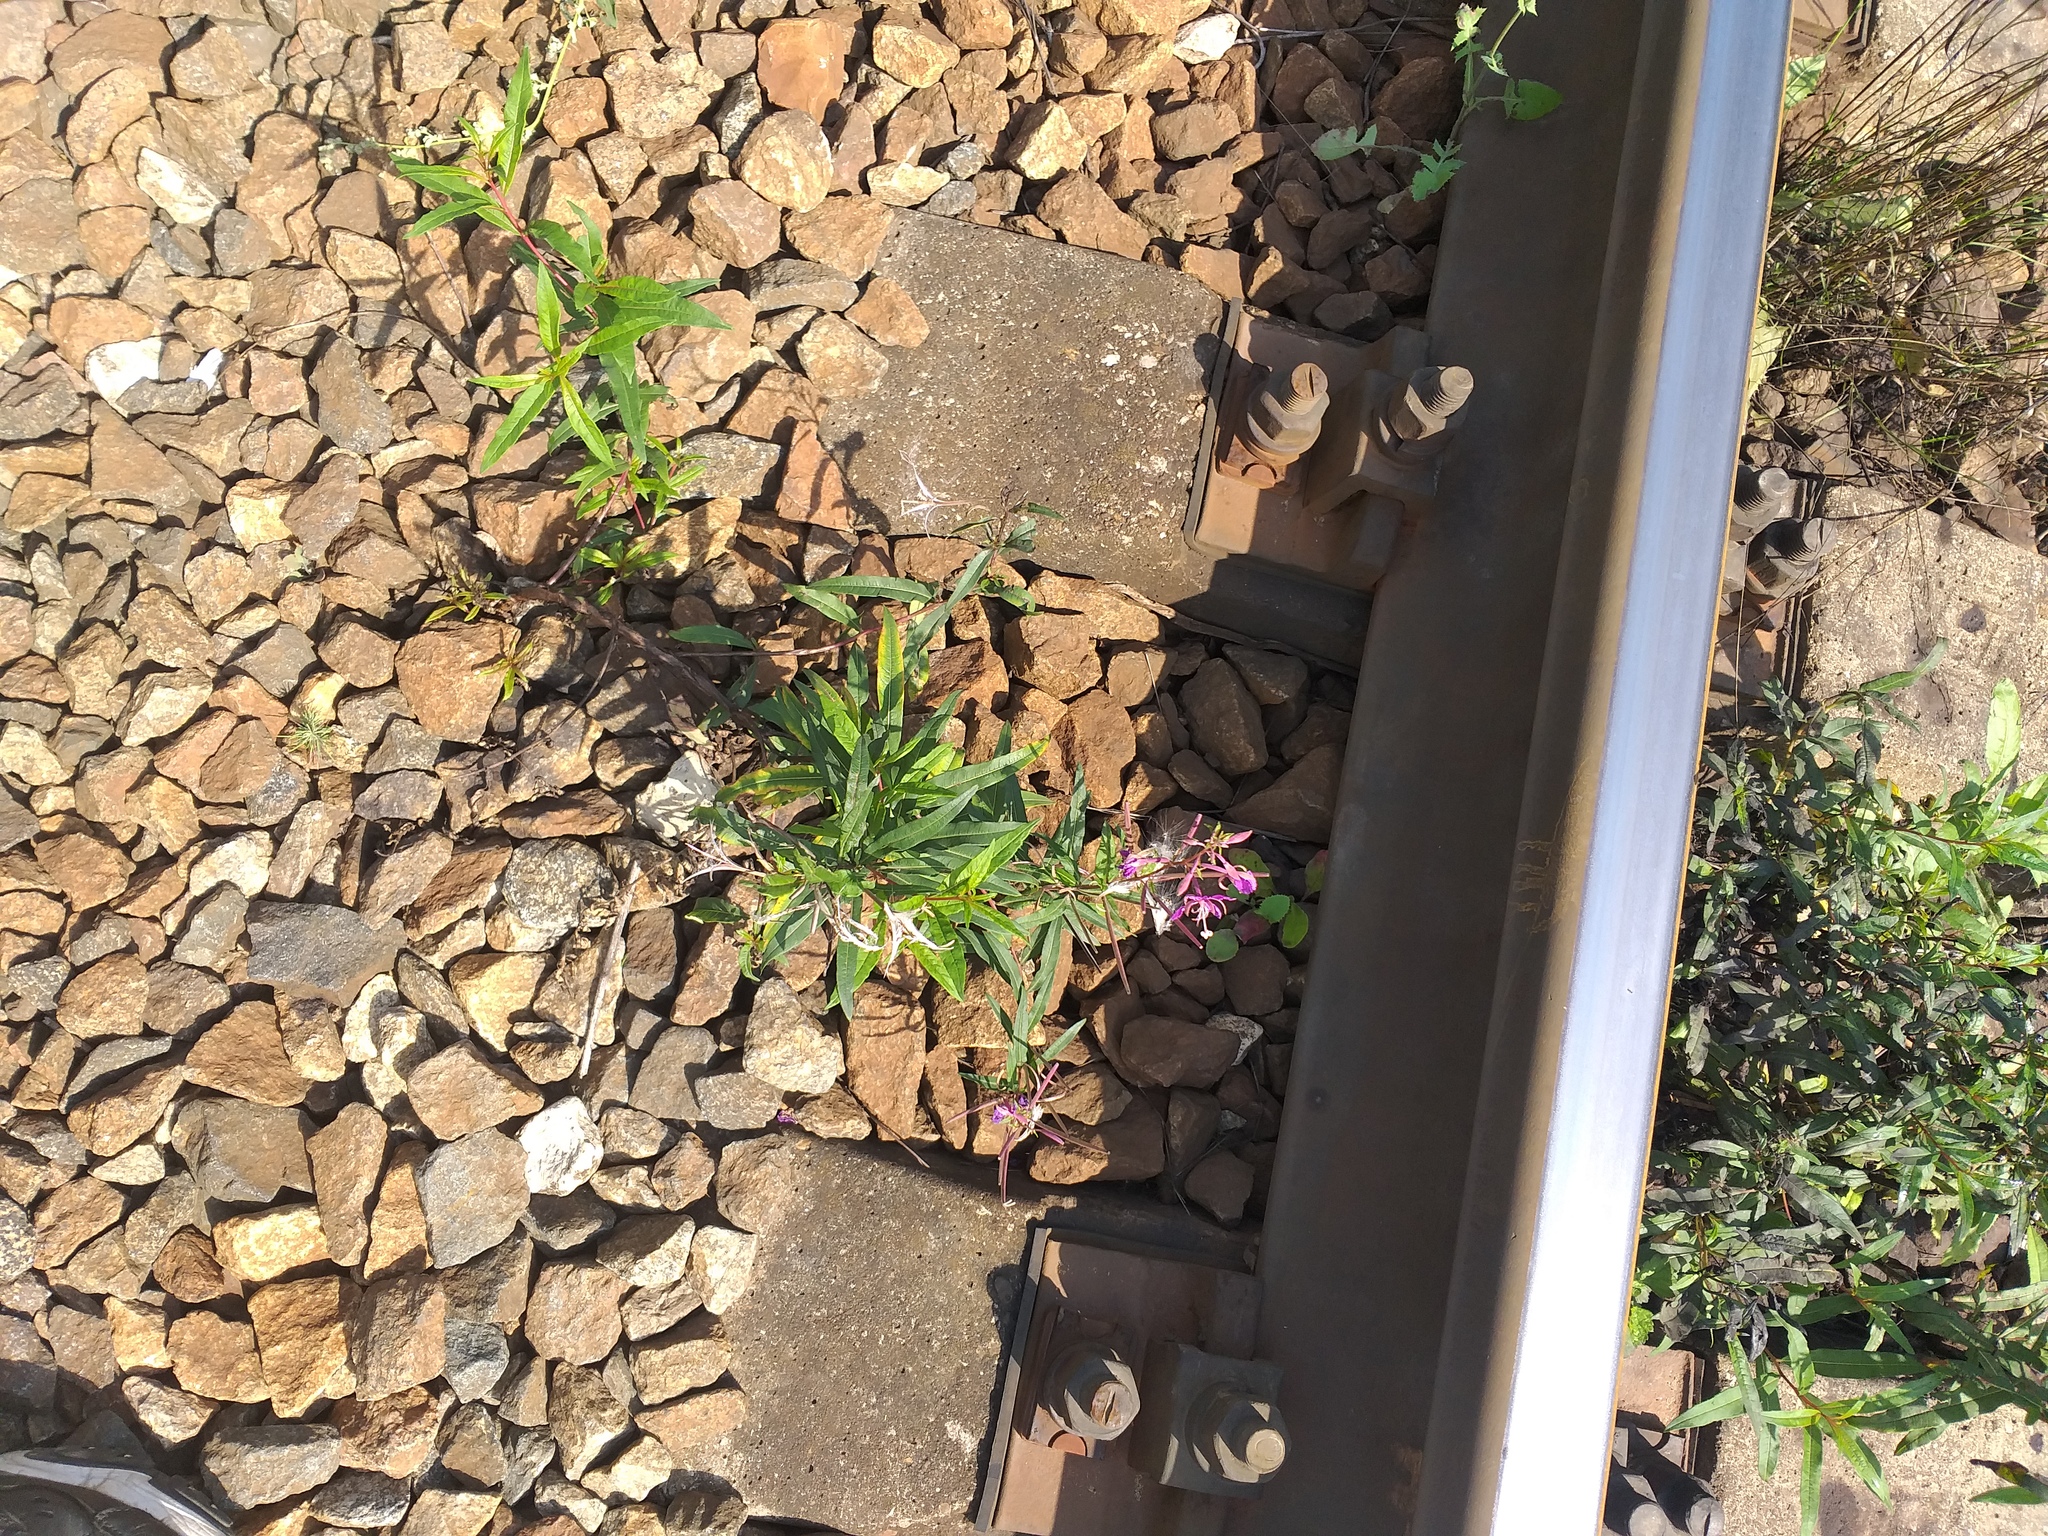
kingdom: Plantae
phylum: Tracheophyta
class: Magnoliopsida
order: Myrtales
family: Onagraceae
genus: Chamaenerion
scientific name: Chamaenerion angustifolium
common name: Fireweed
